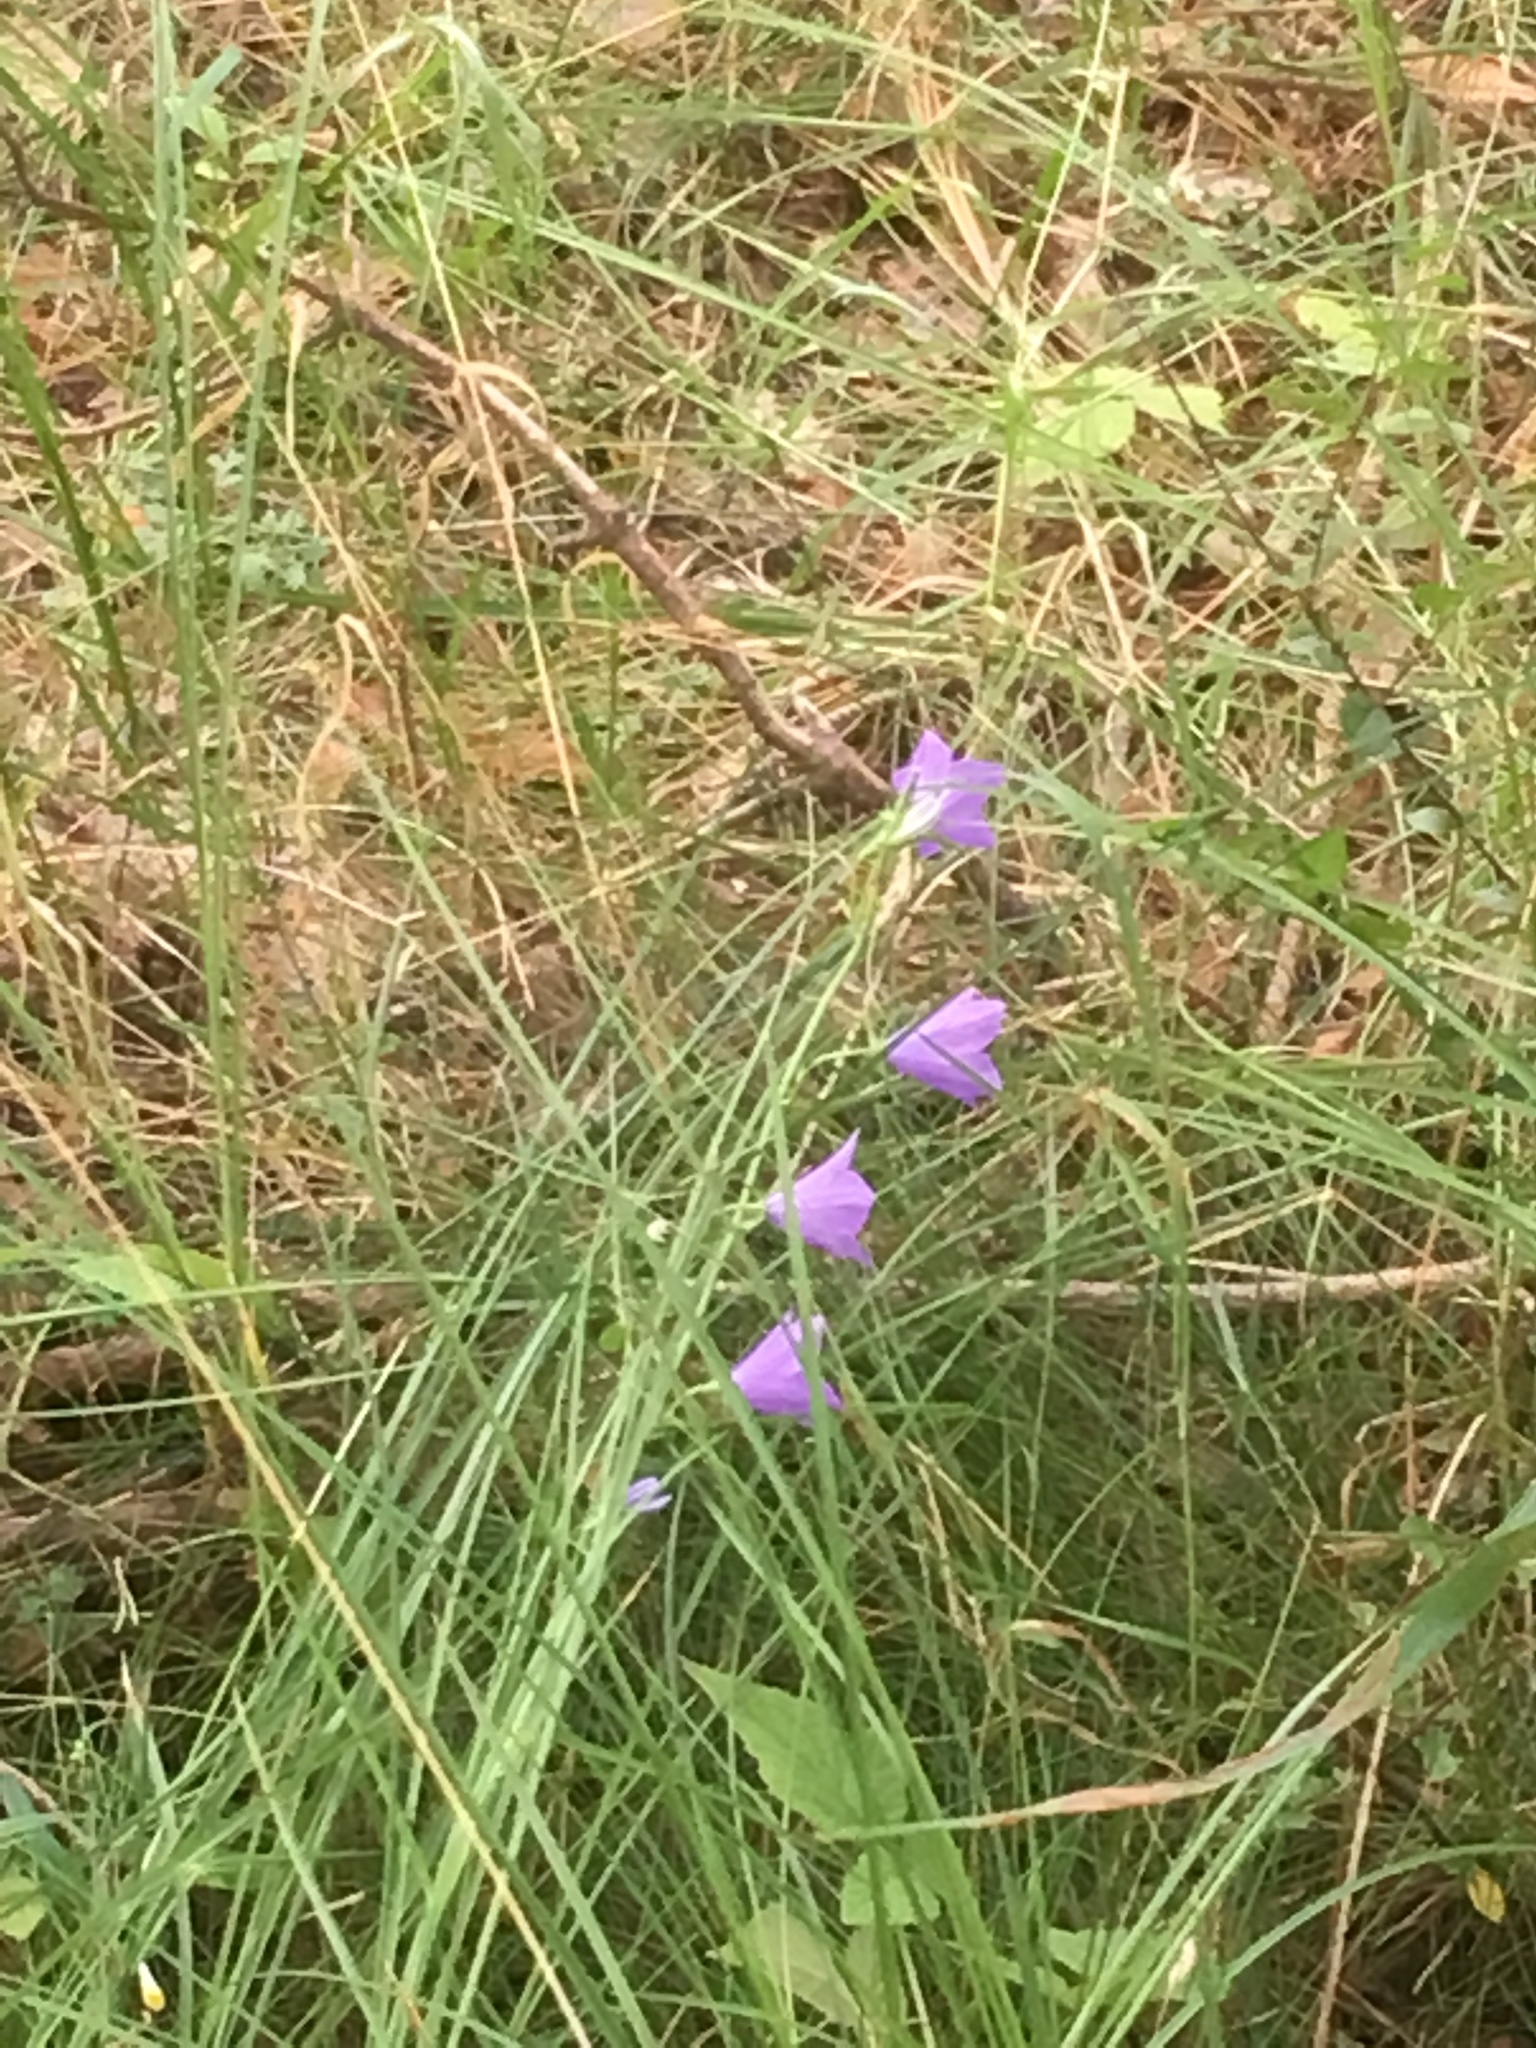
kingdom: Plantae
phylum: Tracheophyta
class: Magnoliopsida
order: Asterales
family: Campanulaceae
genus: Campanula
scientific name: Campanula rotundifolia
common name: Harebell
